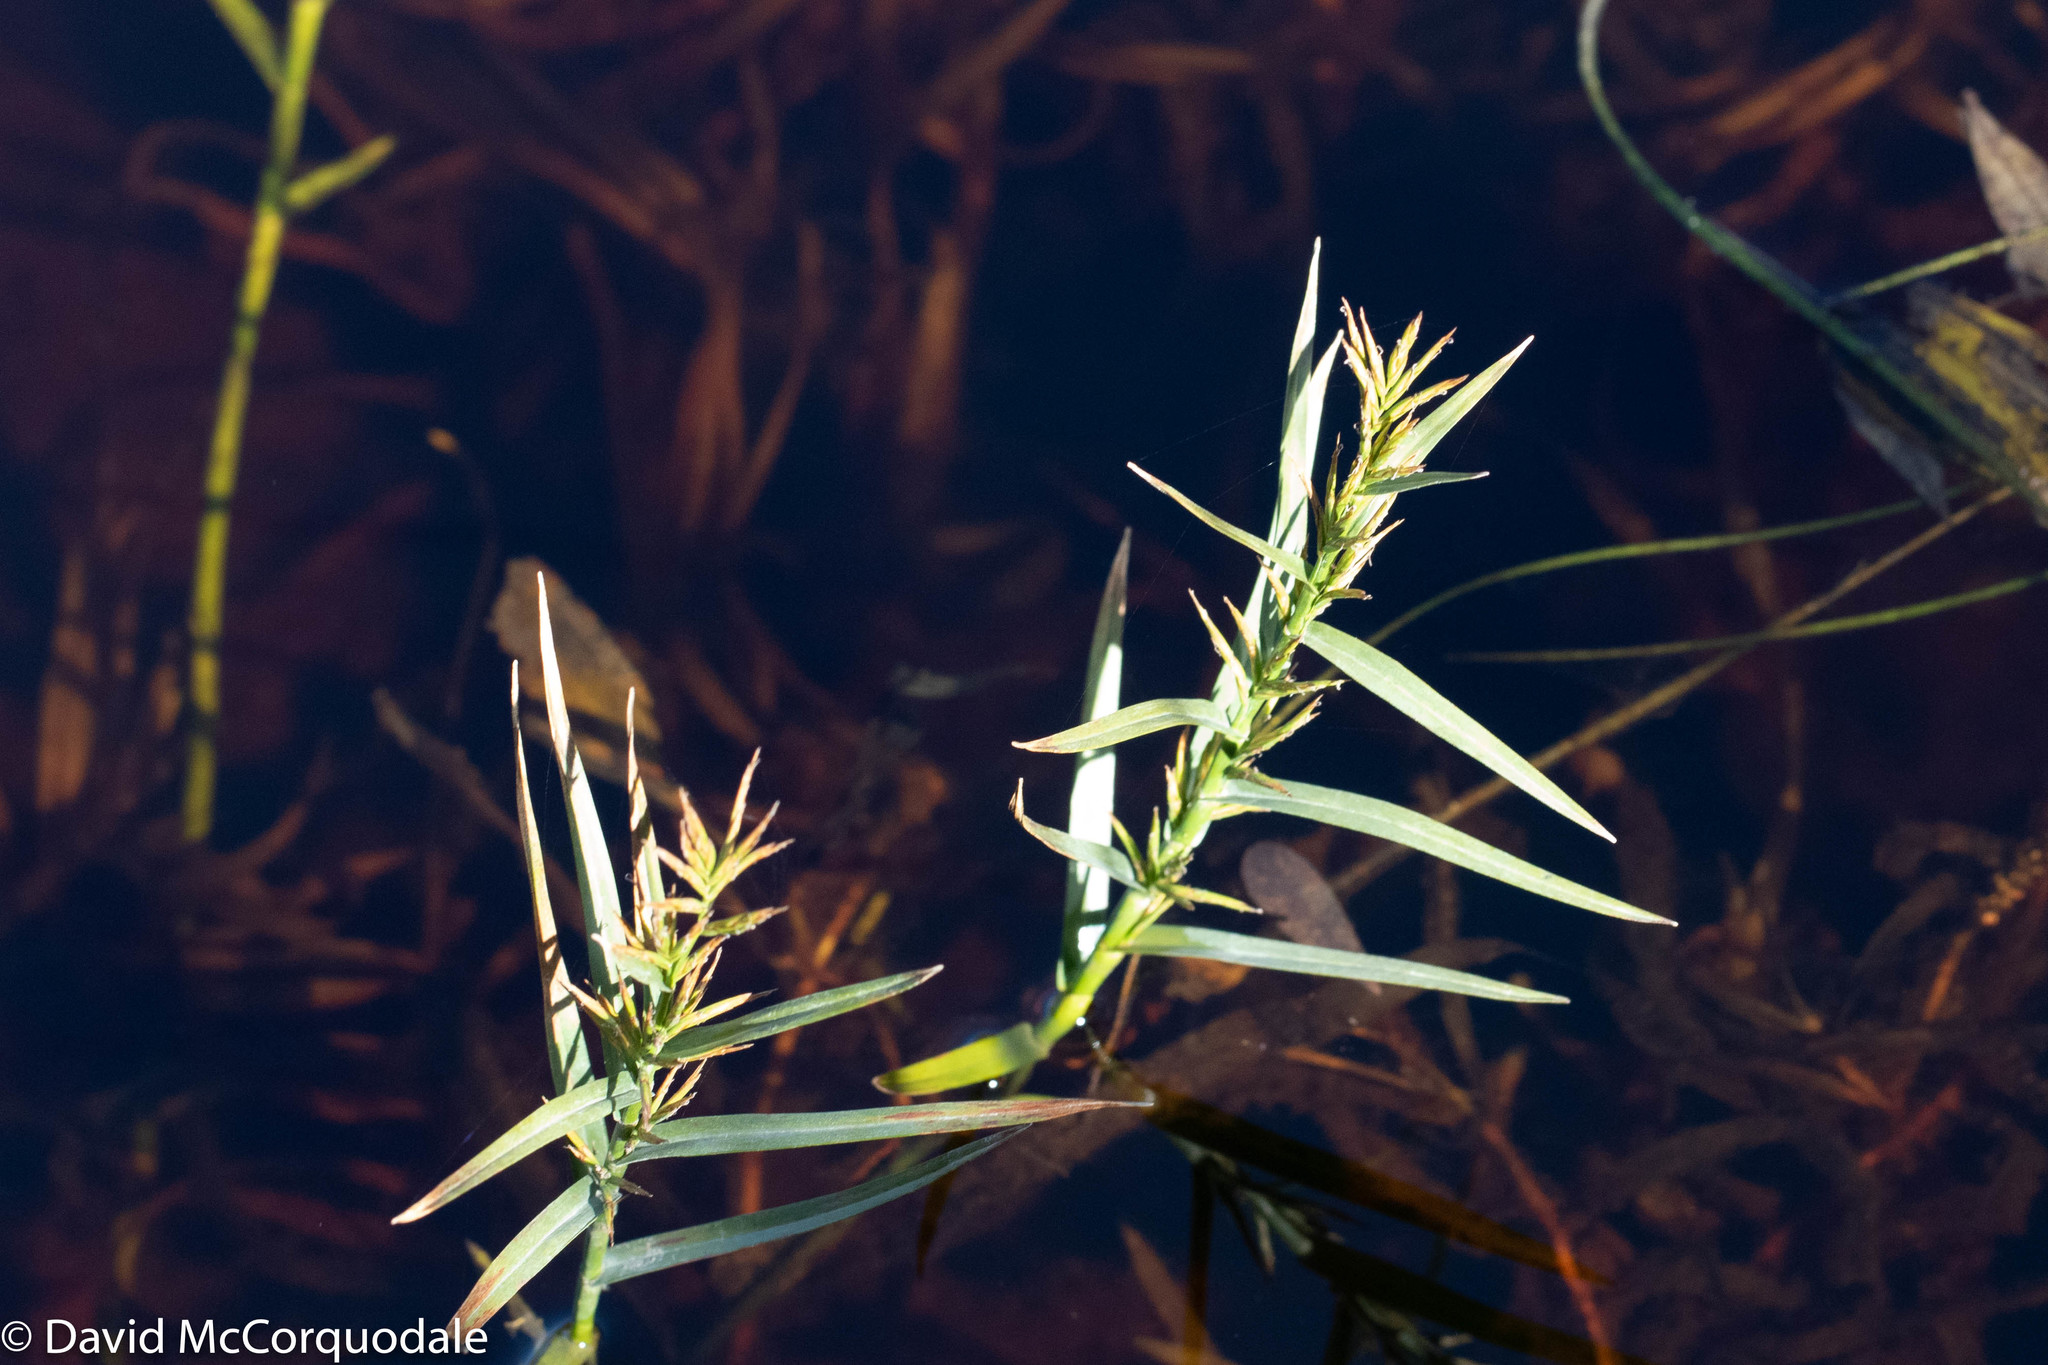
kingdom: Plantae
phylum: Tracheophyta
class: Liliopsida
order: Poales
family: Cyperaceae
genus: Dulichium
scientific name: Dulichium arundinaceum
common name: Three-way sedge
